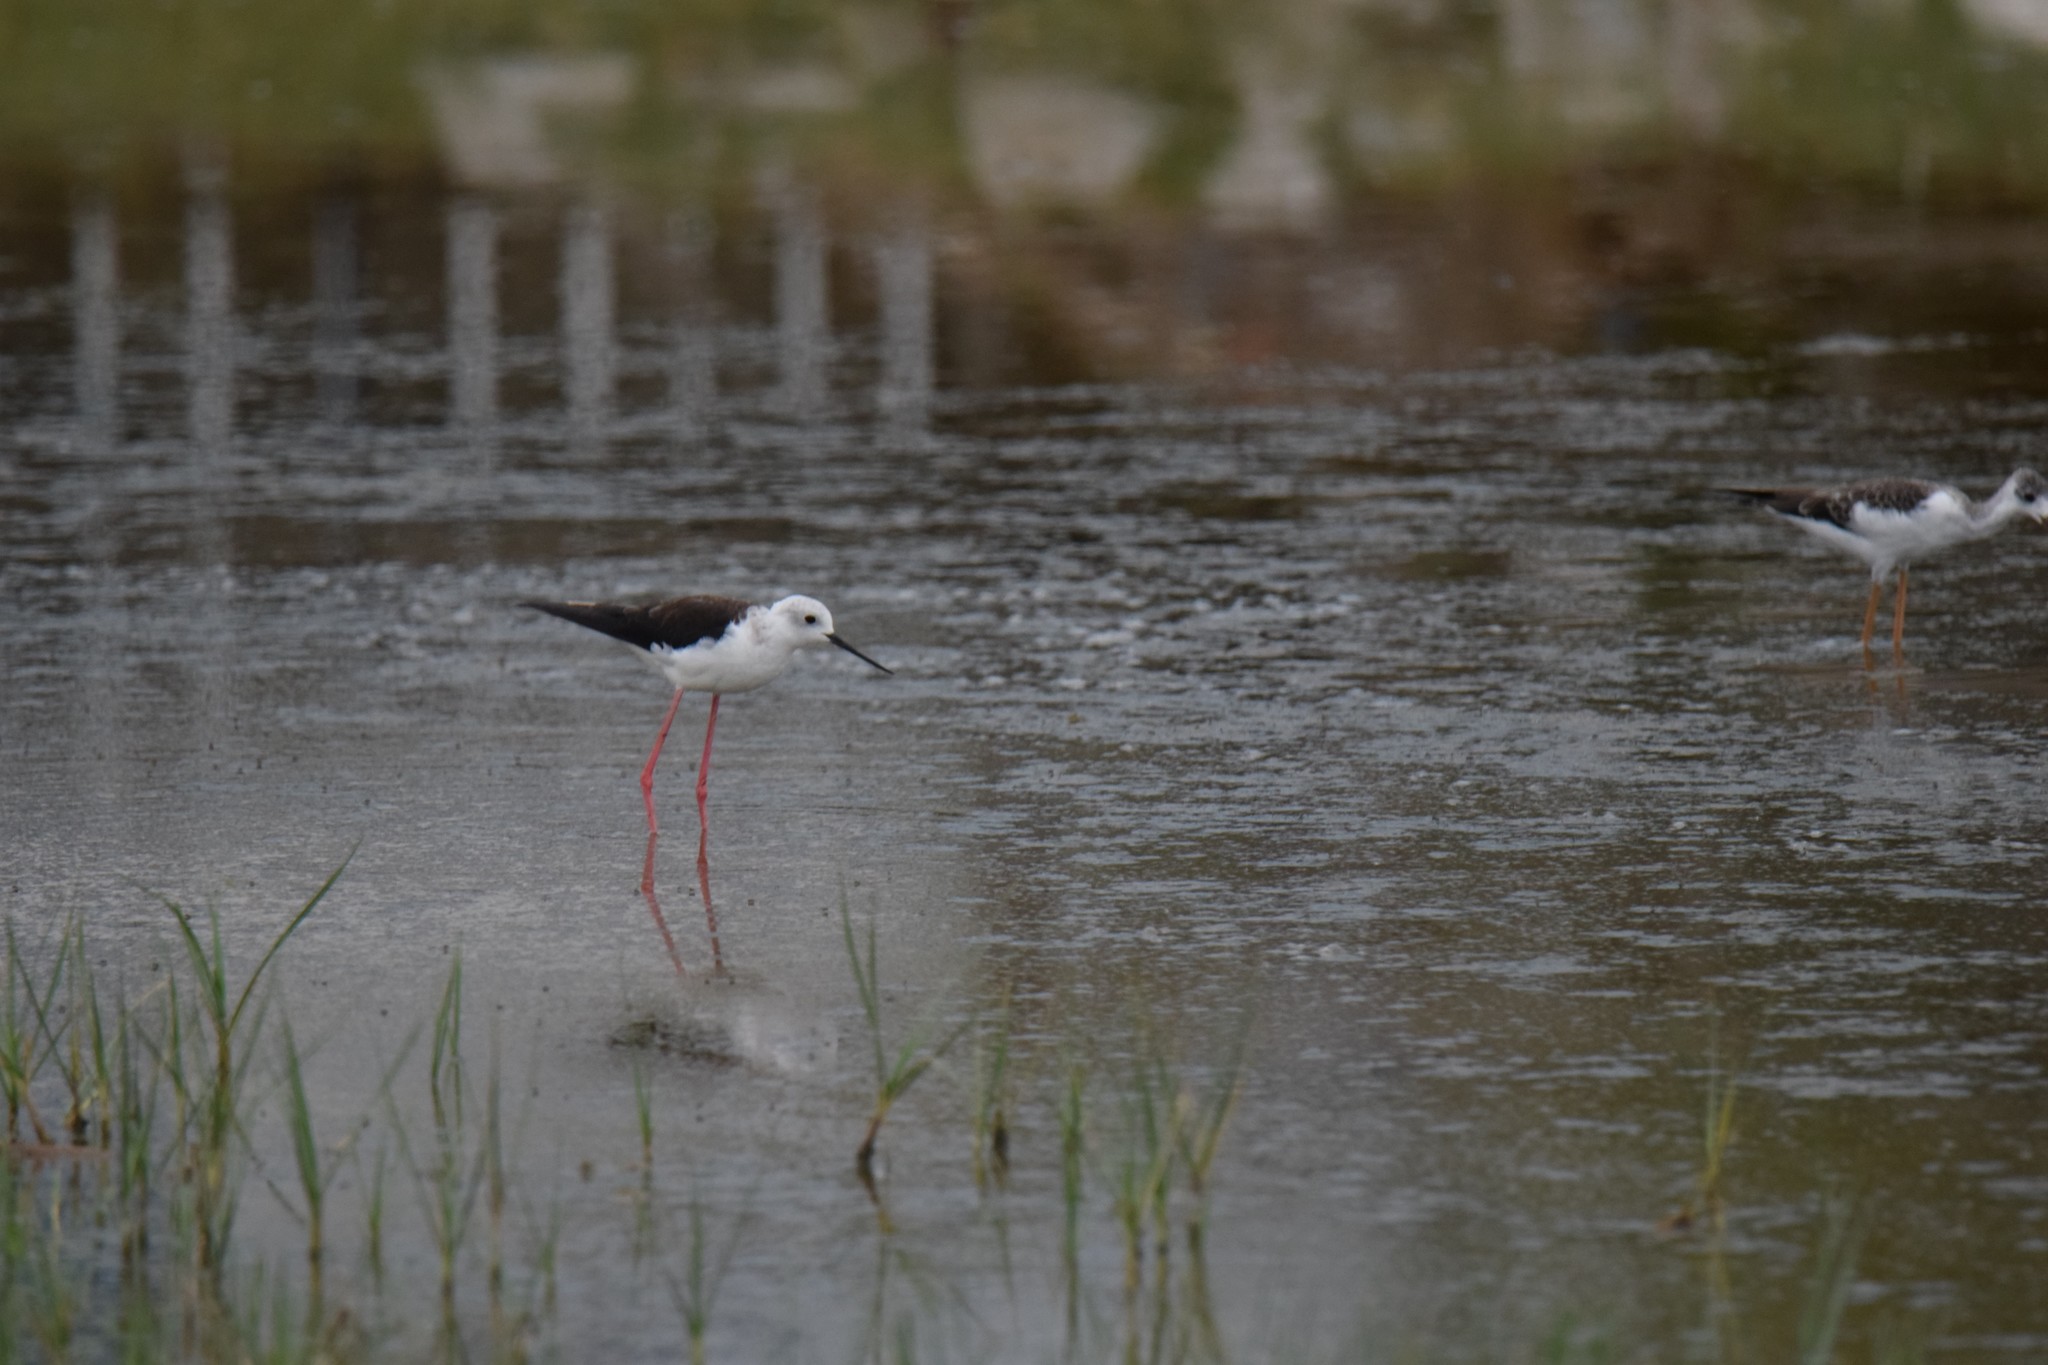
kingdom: Animalia
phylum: Chordata
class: Aves
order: Charadriiformes
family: Recurvirostridae
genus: Himantopus
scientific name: Himantopus himantopus
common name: Black-winged stilt
